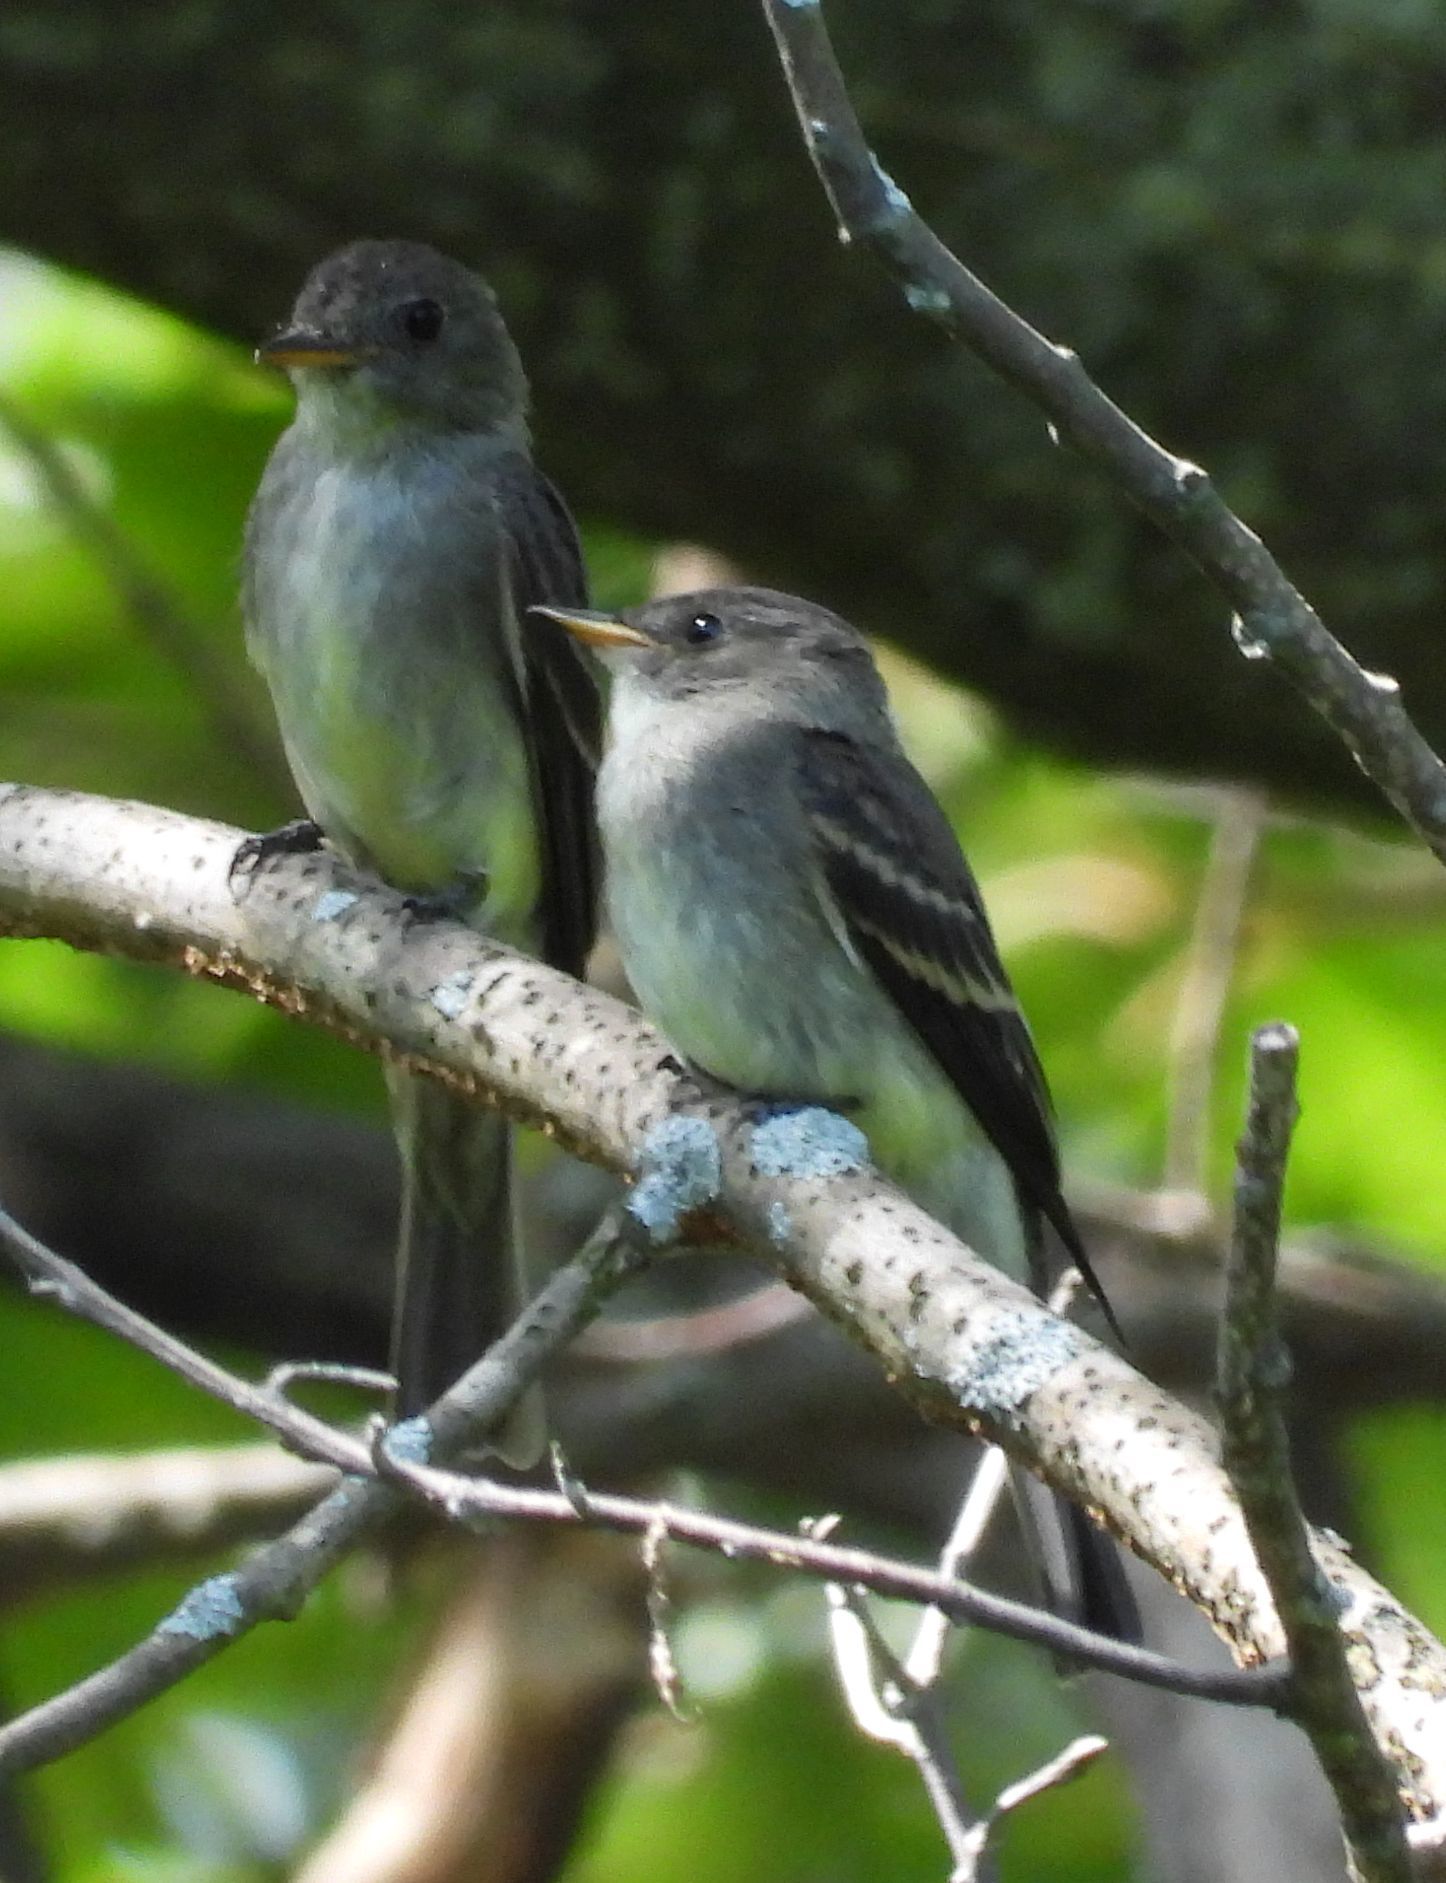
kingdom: Animalia
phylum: Chordata
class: Aves
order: Passeriformes
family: Tyrannidae
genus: Contopus
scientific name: Contopus virens
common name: Eastern wood-pewee
